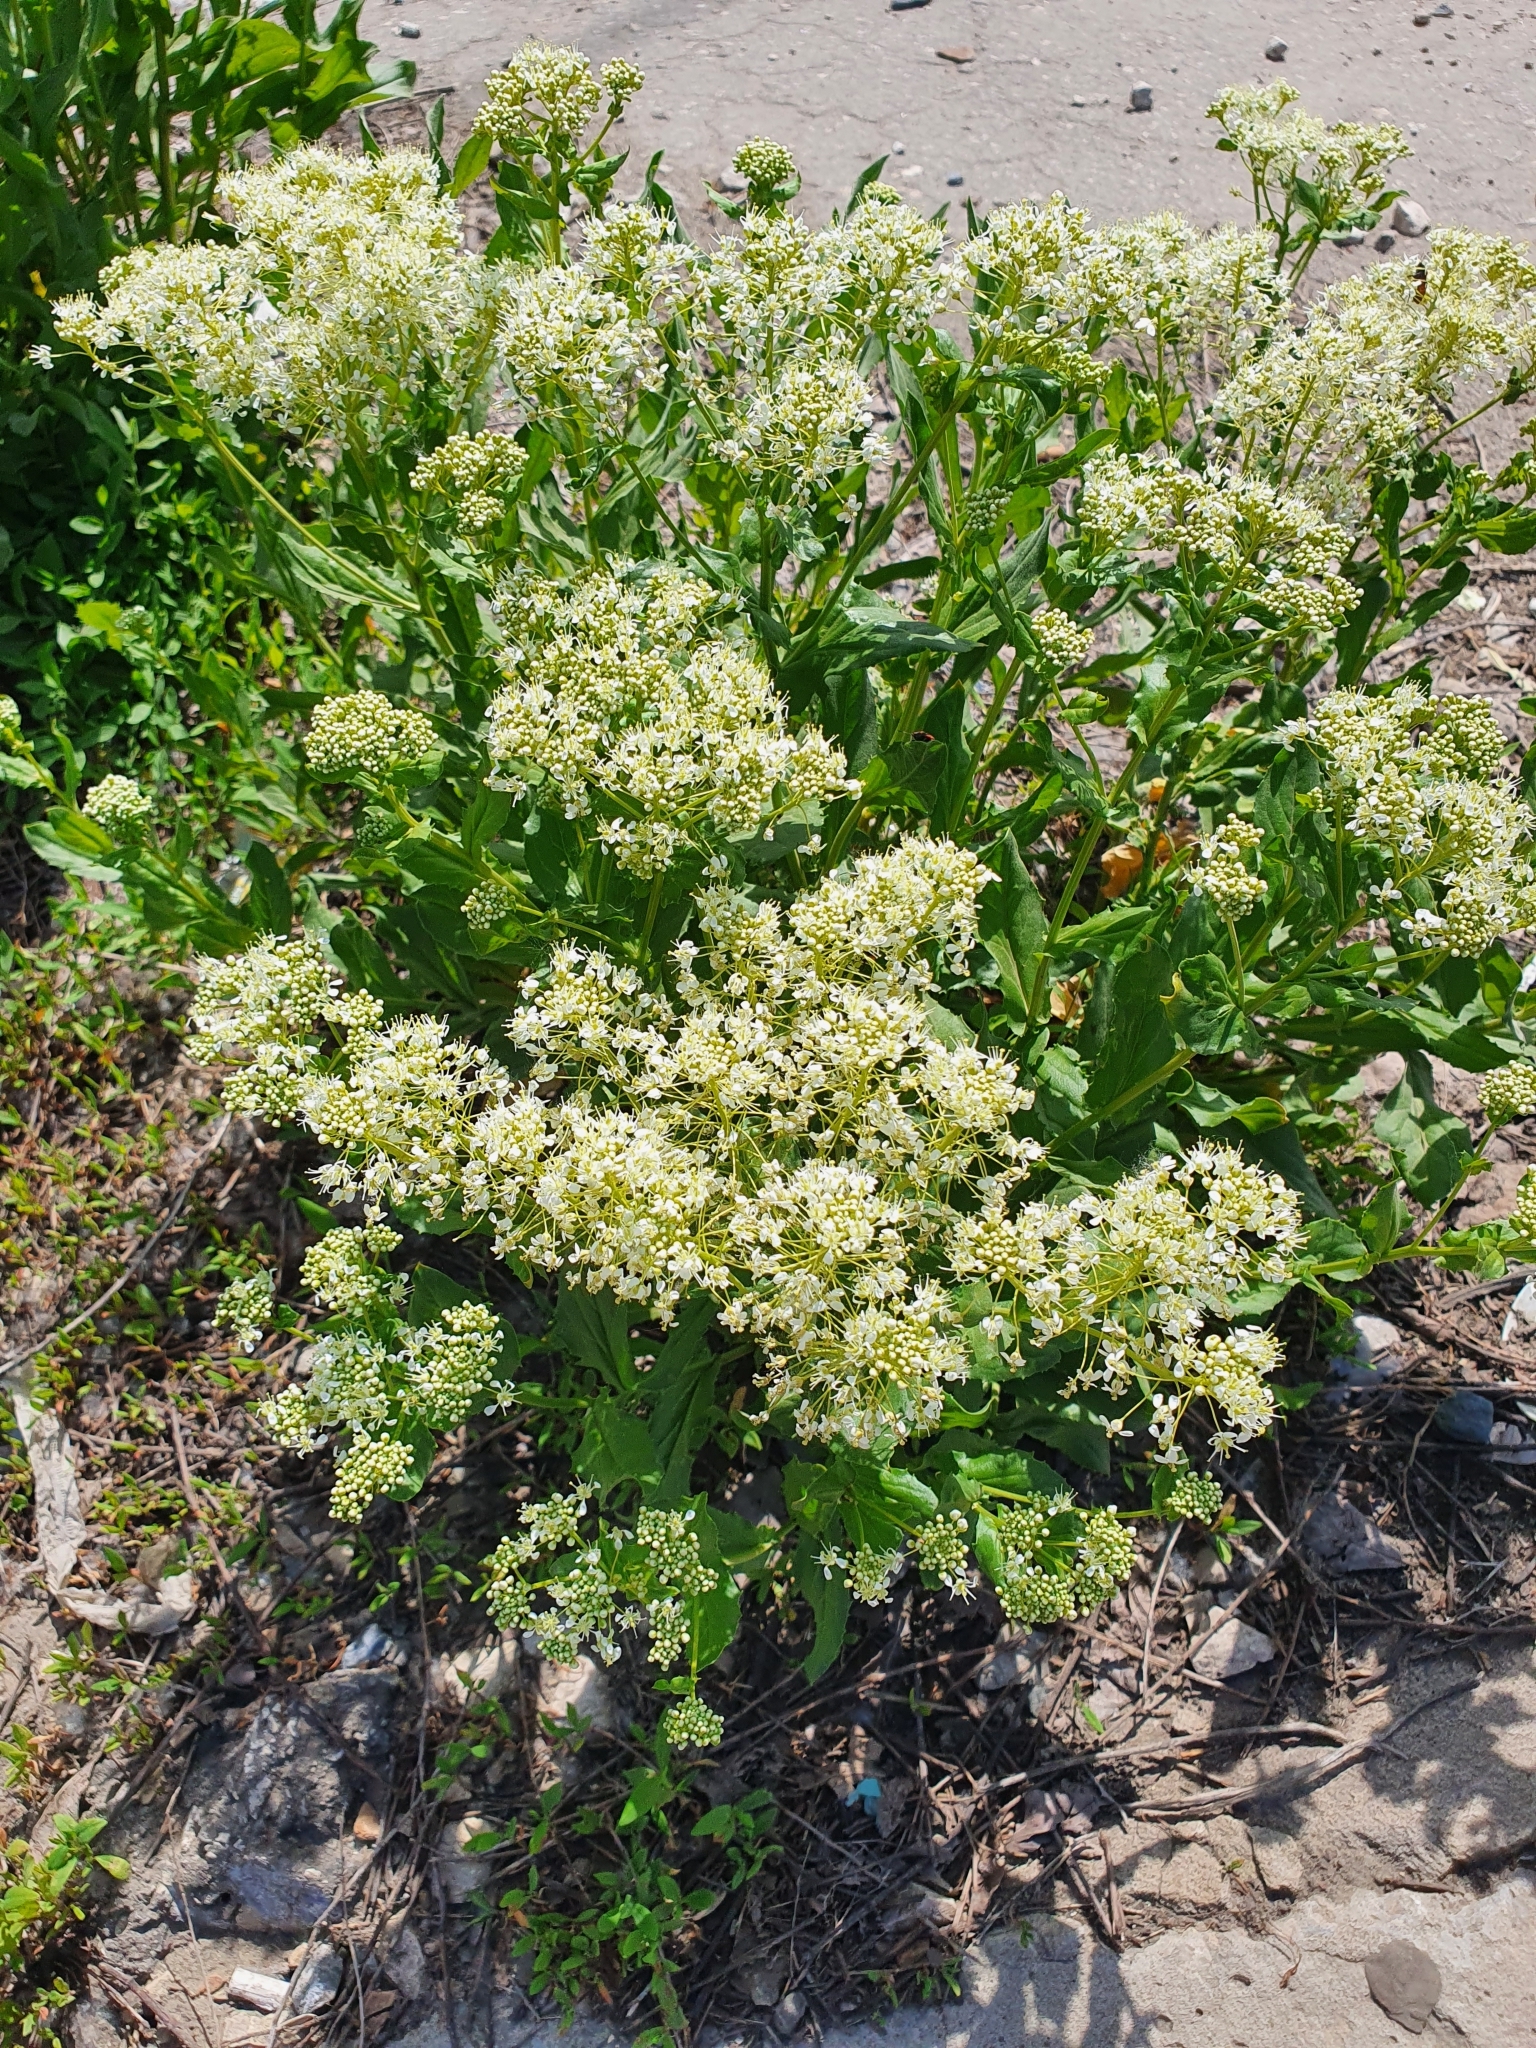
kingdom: Plantae
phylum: Tracheophyta
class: Magnoliopsida
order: Brassicales
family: Brassicaceae
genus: Lepidium
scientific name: Lepidium draba
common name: Hoary cress
